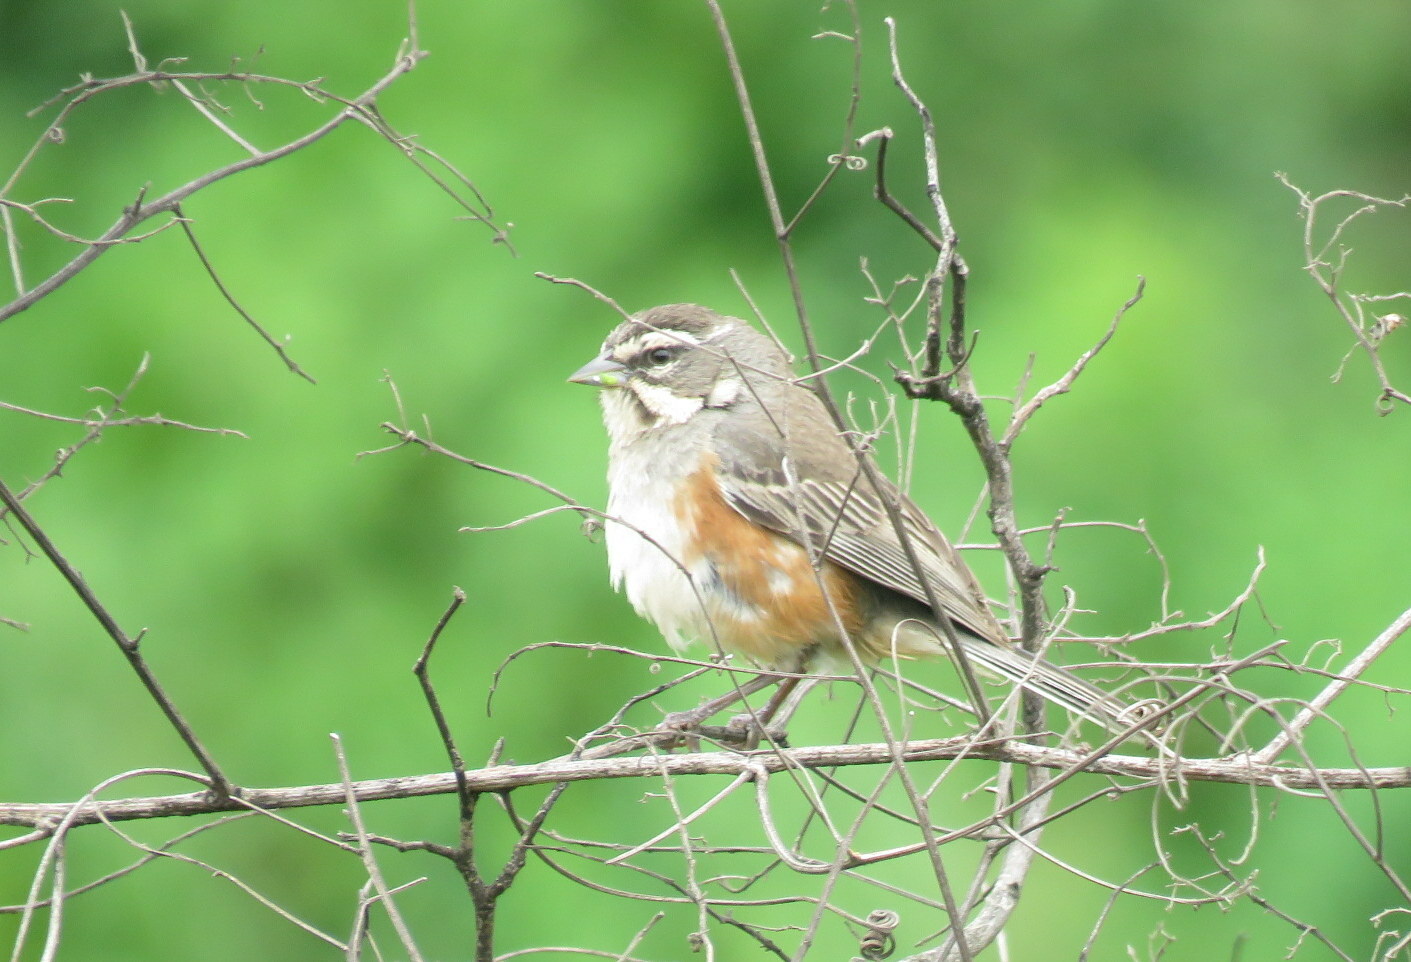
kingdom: Animalia
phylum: Chordata
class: Aves
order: Passeriformes
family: Thraupidae
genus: Poospizopsis
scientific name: Poospizopsis hypocondria
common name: Rufous-sided warbling-finch
